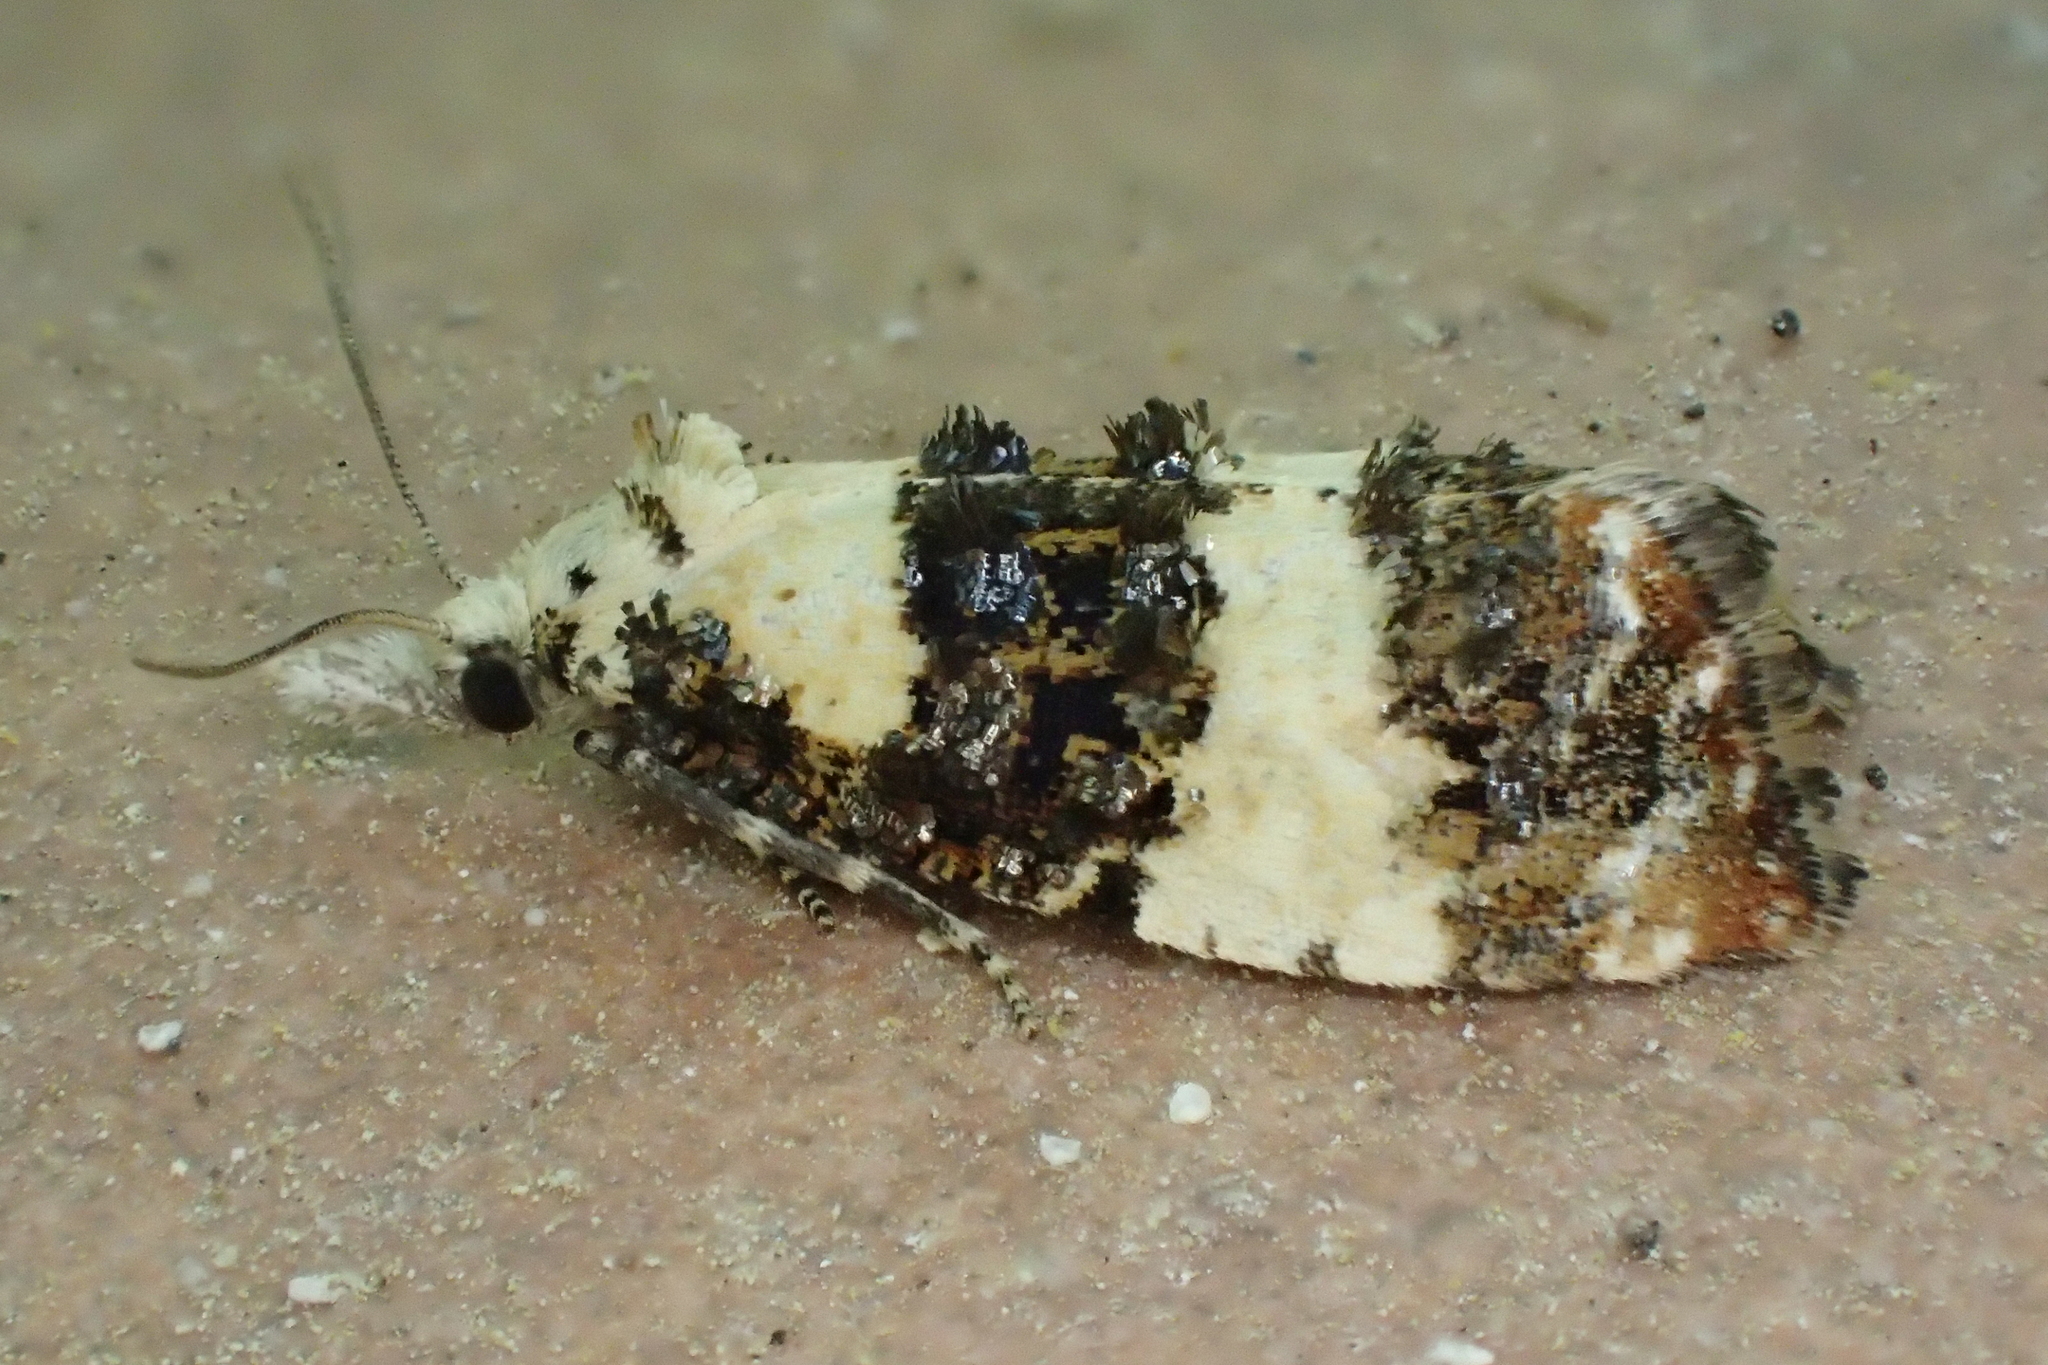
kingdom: Animalia
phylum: Arthropoda
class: Insecta
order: Lepidoptera
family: Tortricidae
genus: Phtheochroa
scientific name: Phtheochroa duponchelana
